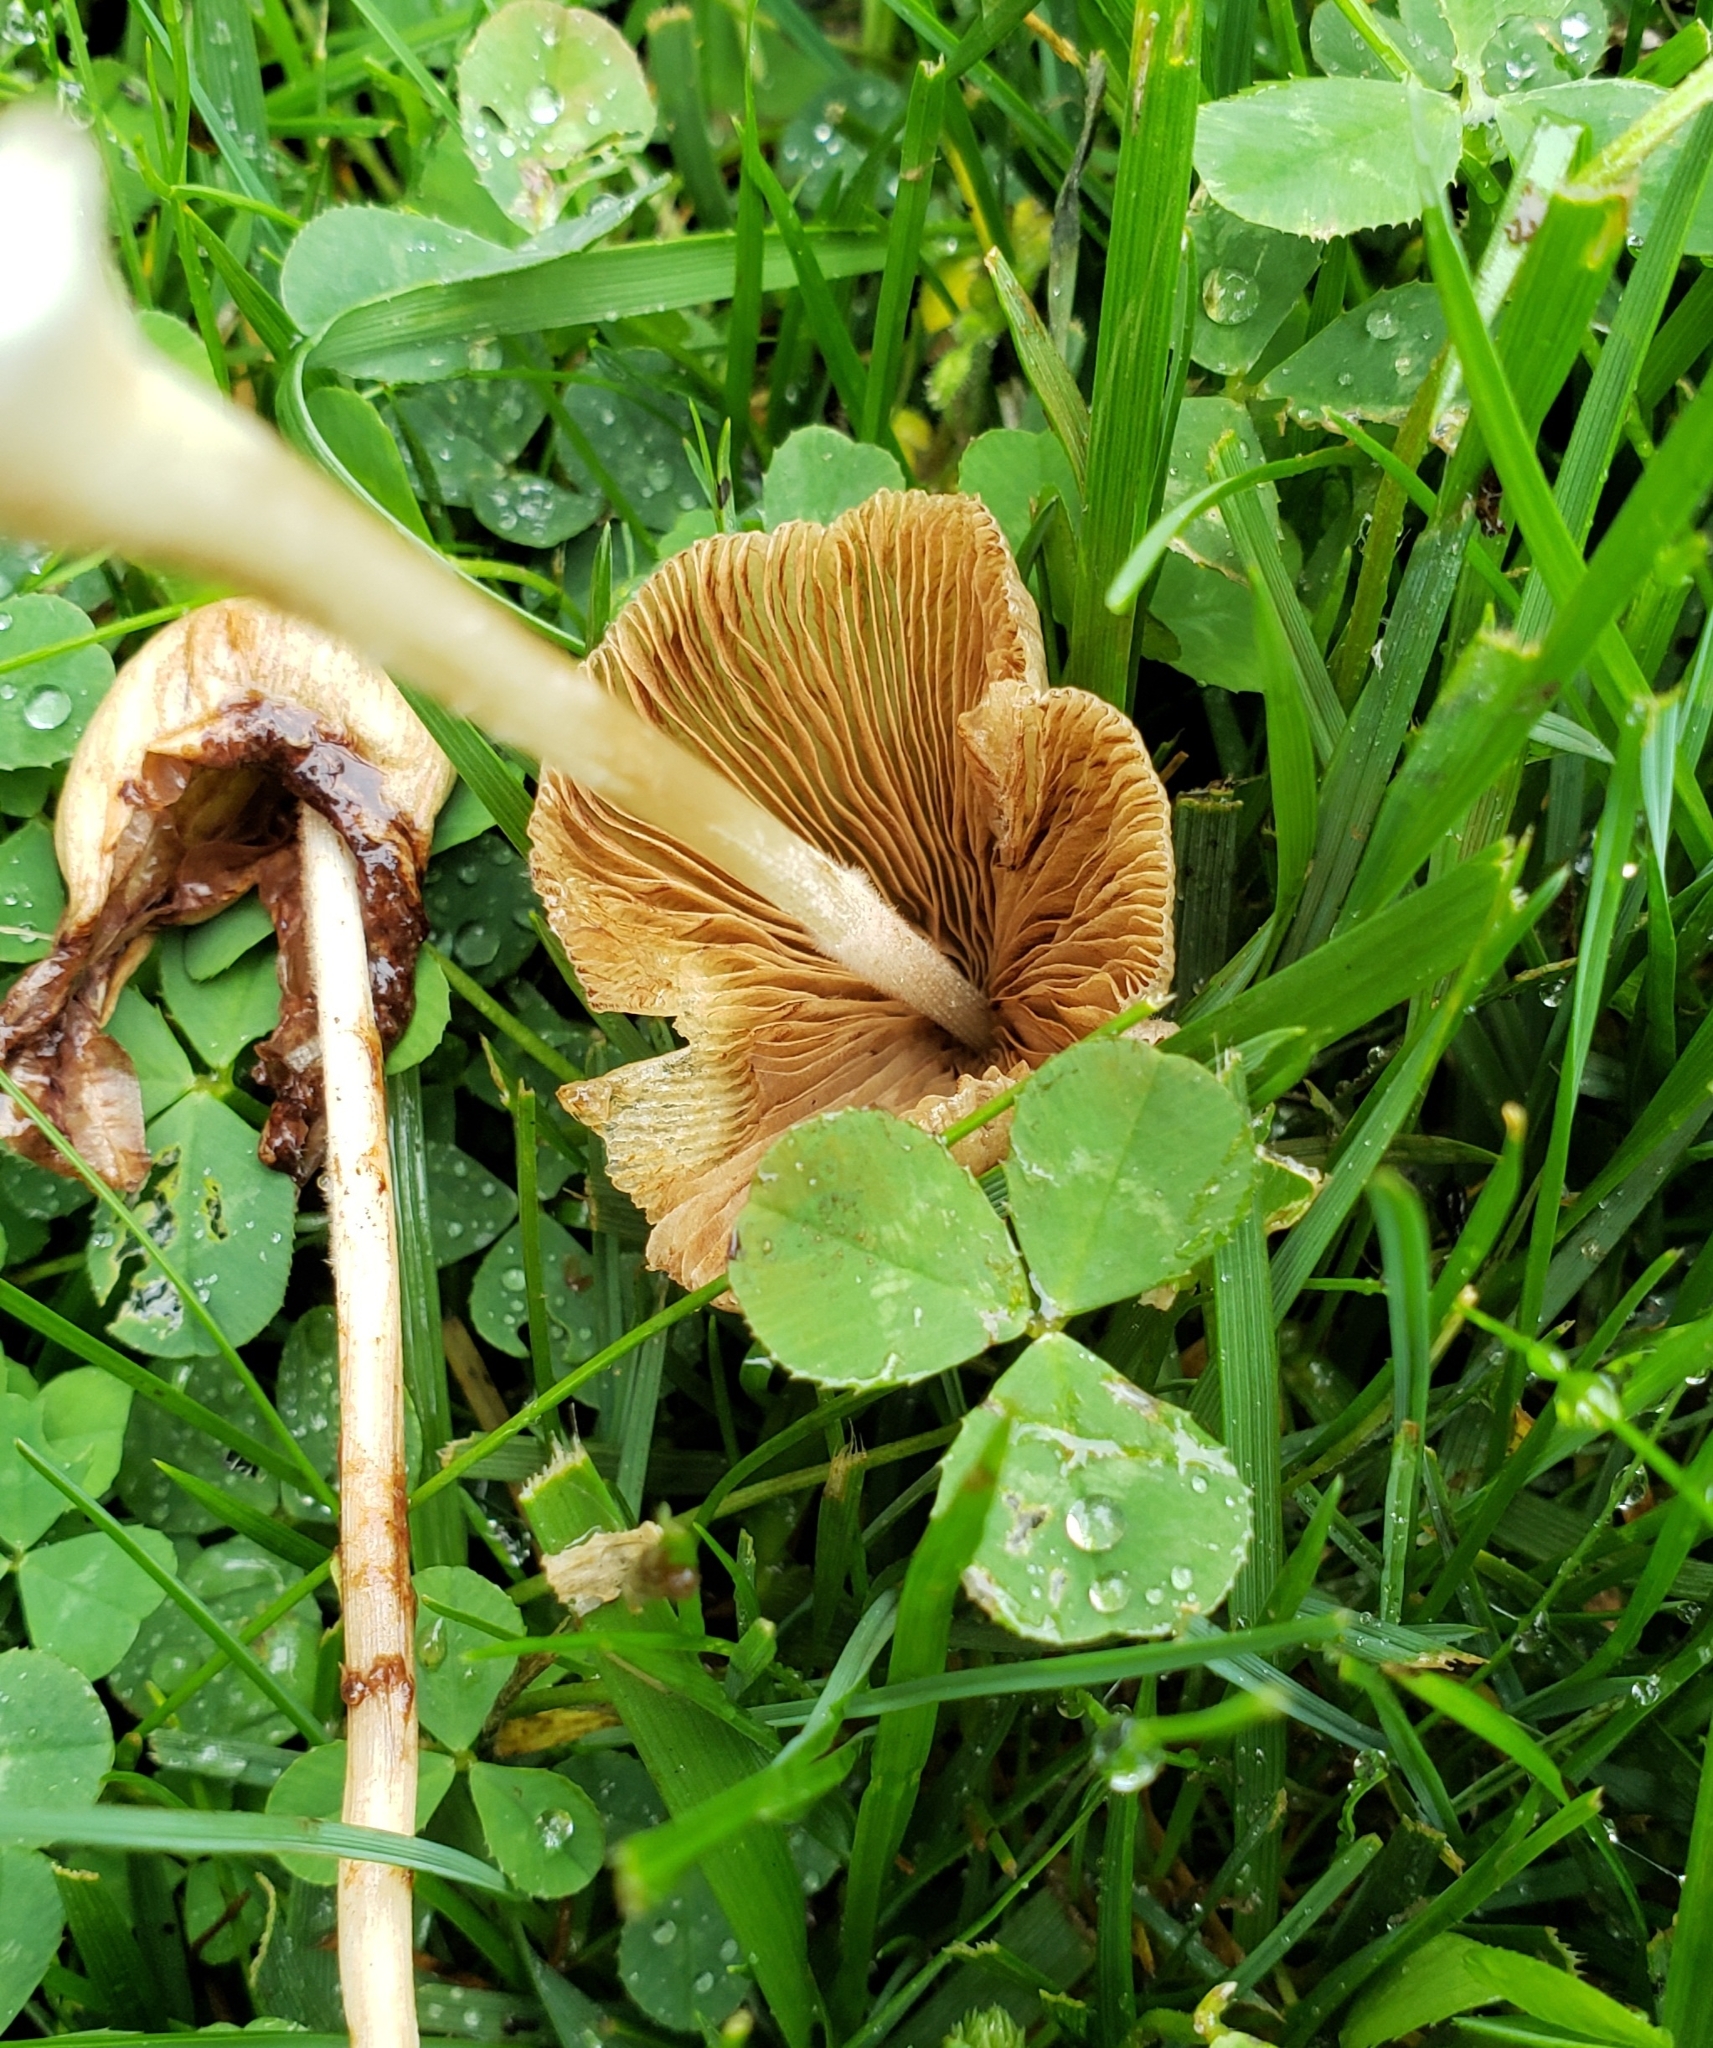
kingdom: Fungi
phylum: Basidiomycota
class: Agaricomycetes
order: Agaricales
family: Bolbitiaceae
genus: Conocybe
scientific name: Conocybe apala
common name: Milky conecap
